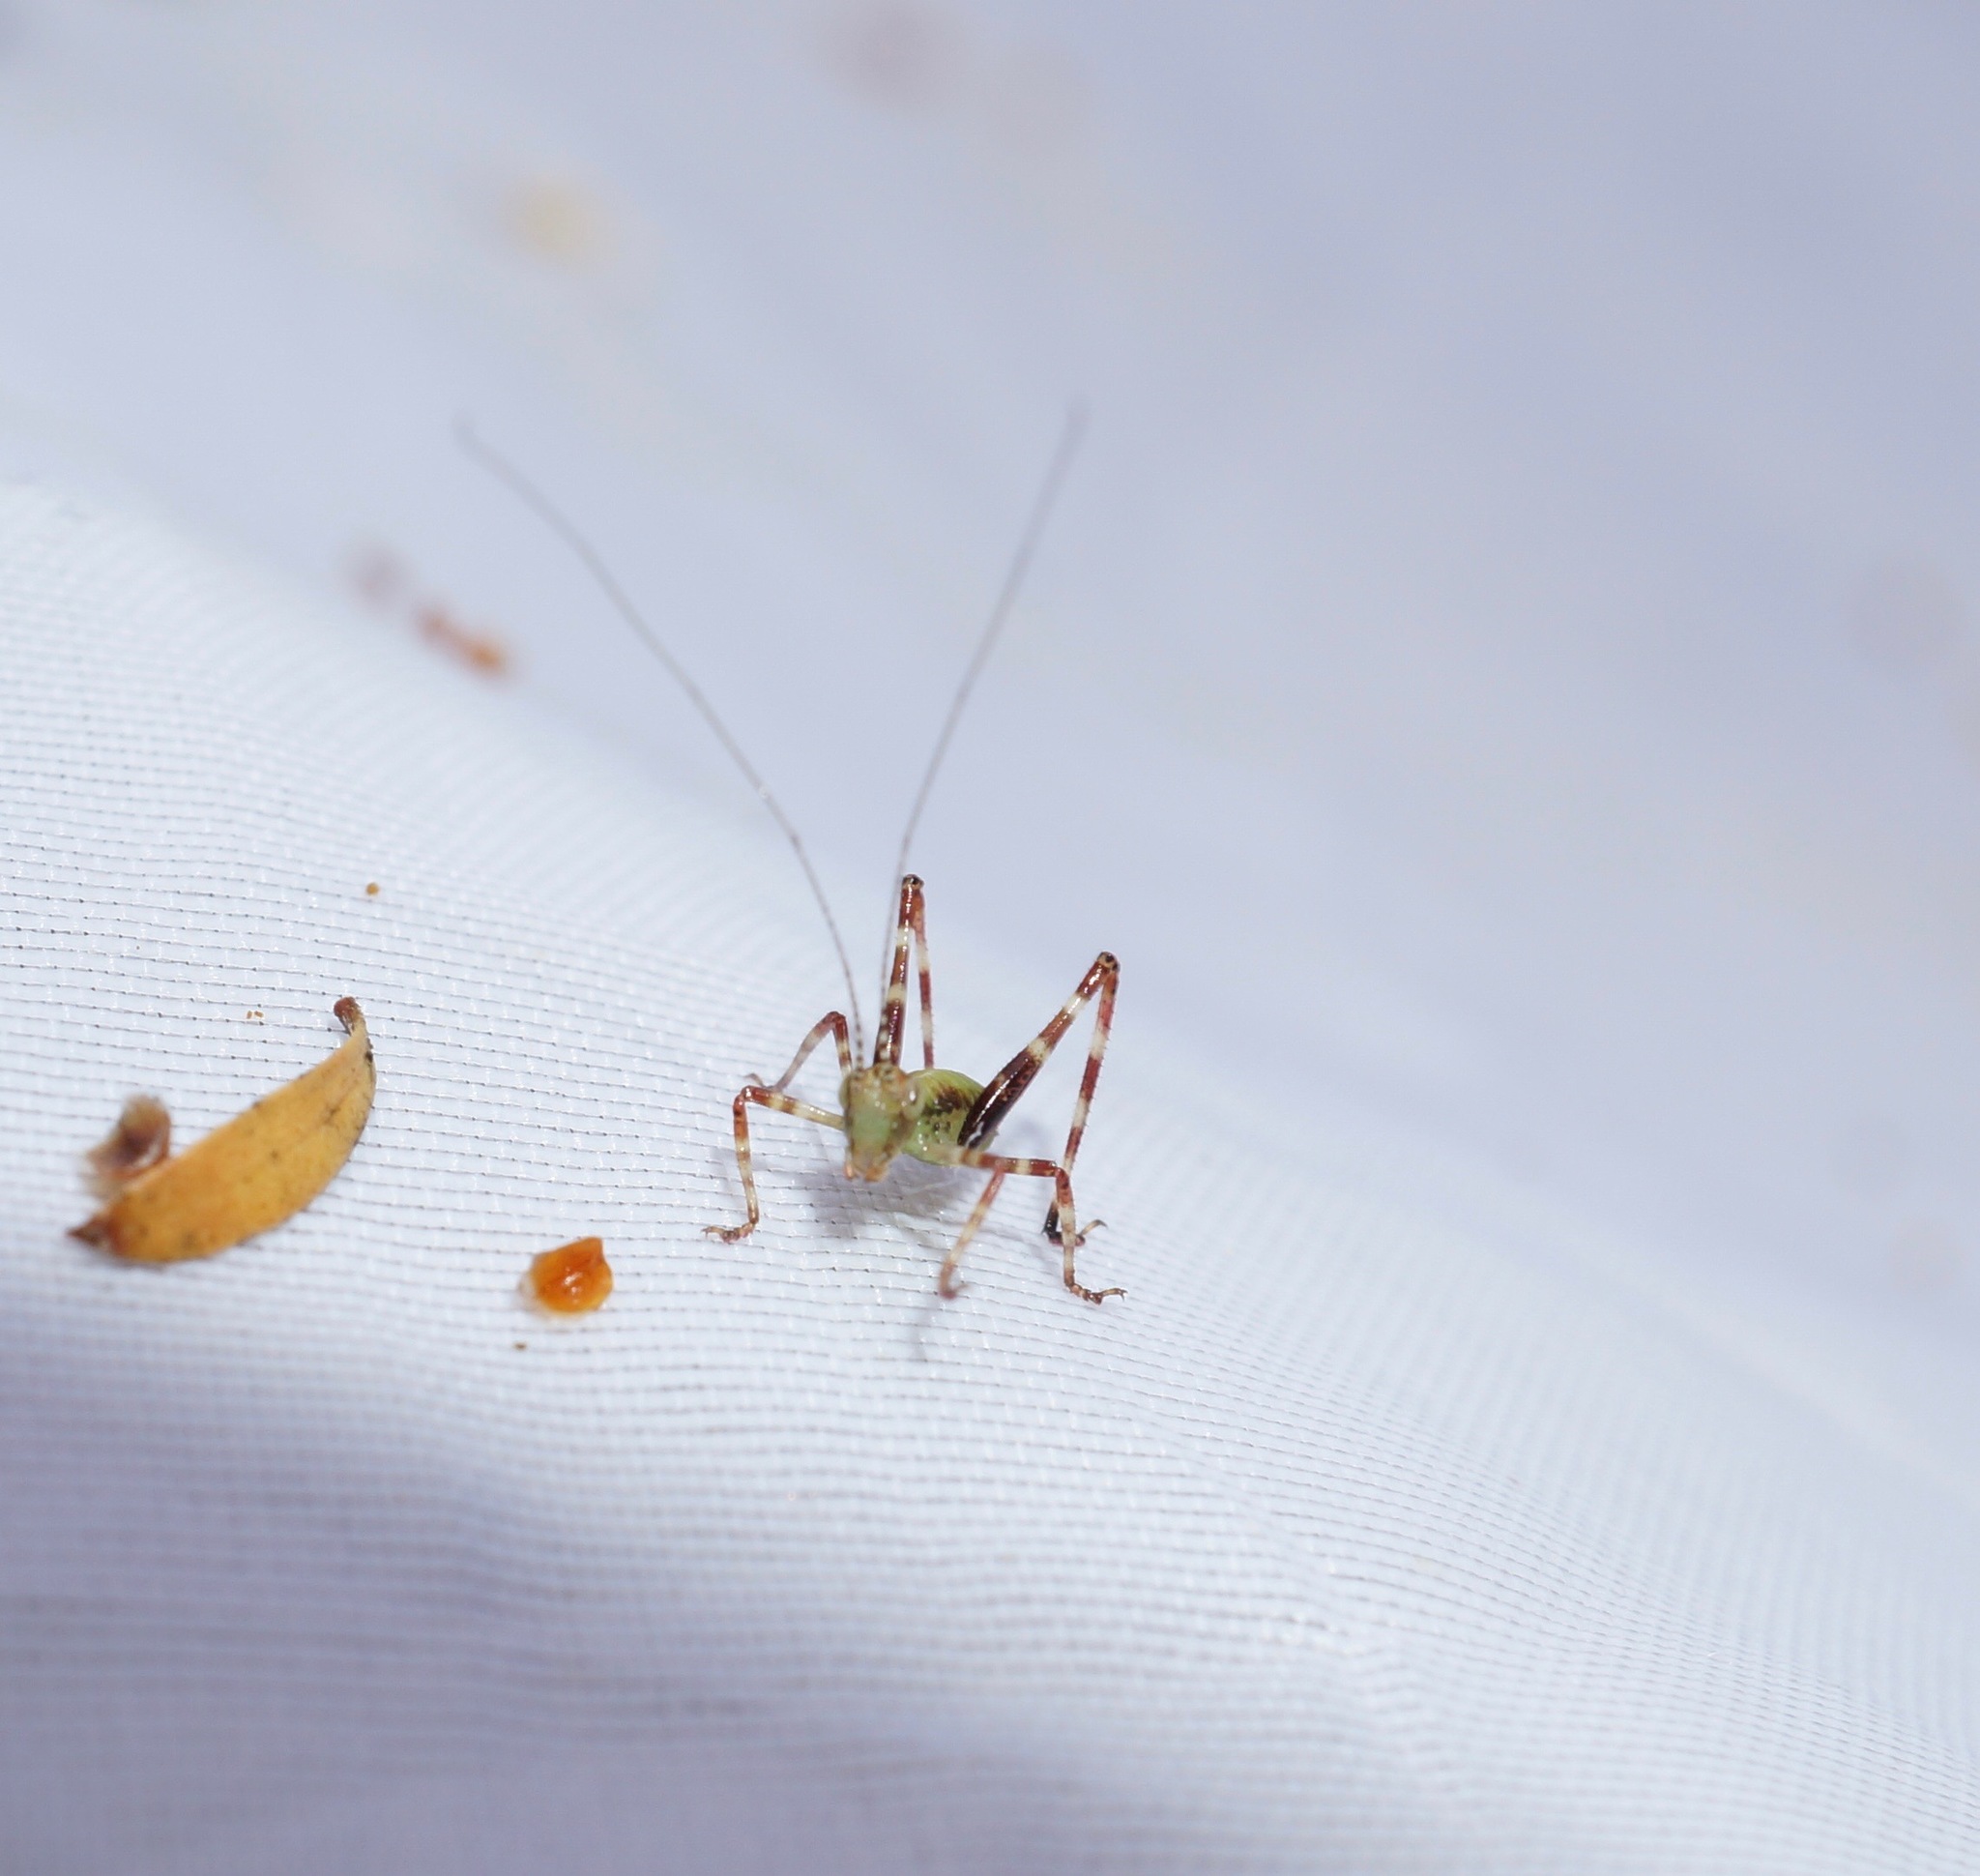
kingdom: Animalia
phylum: Arthropoda
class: Insecta
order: Orthoptera
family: Tettigoniidae
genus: Caedicia
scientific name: Caedicia simplex
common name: Common garden katydid
